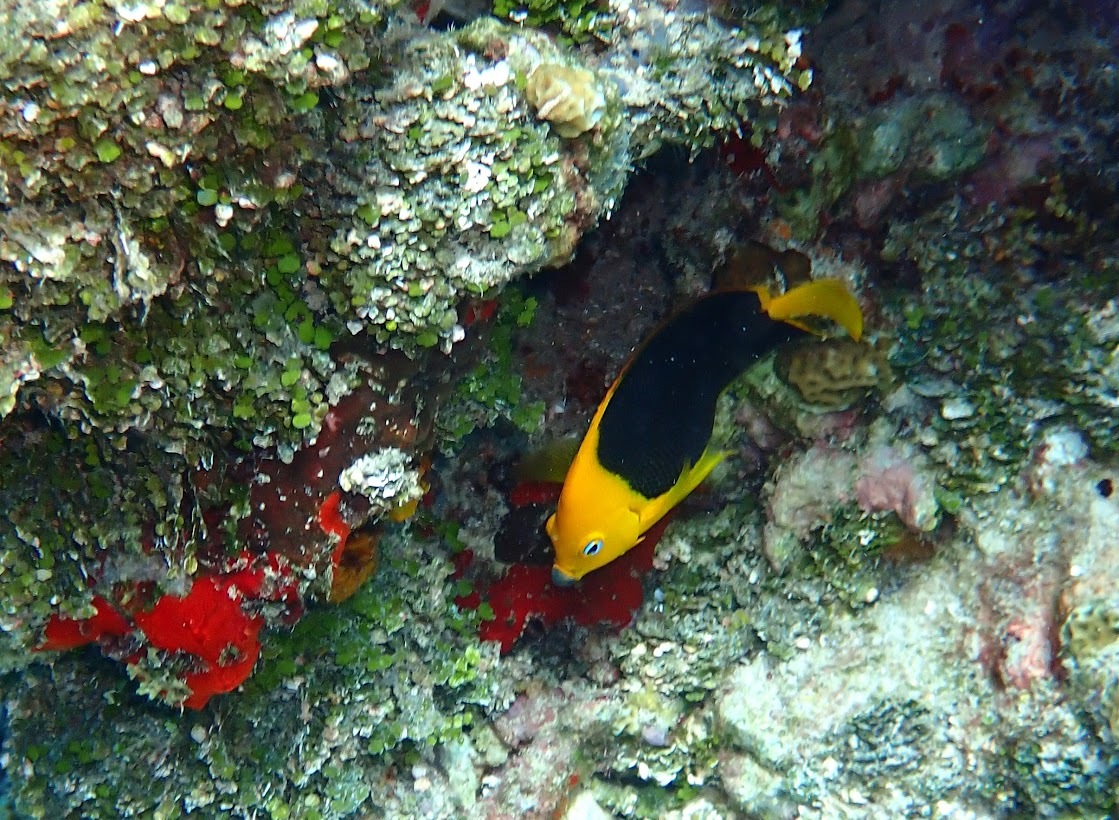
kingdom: Animalia
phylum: Chordata
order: Perciformes
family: Pomacanthidae
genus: Holacanthus
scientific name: Holacanthus tricolor
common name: Rock beauty
